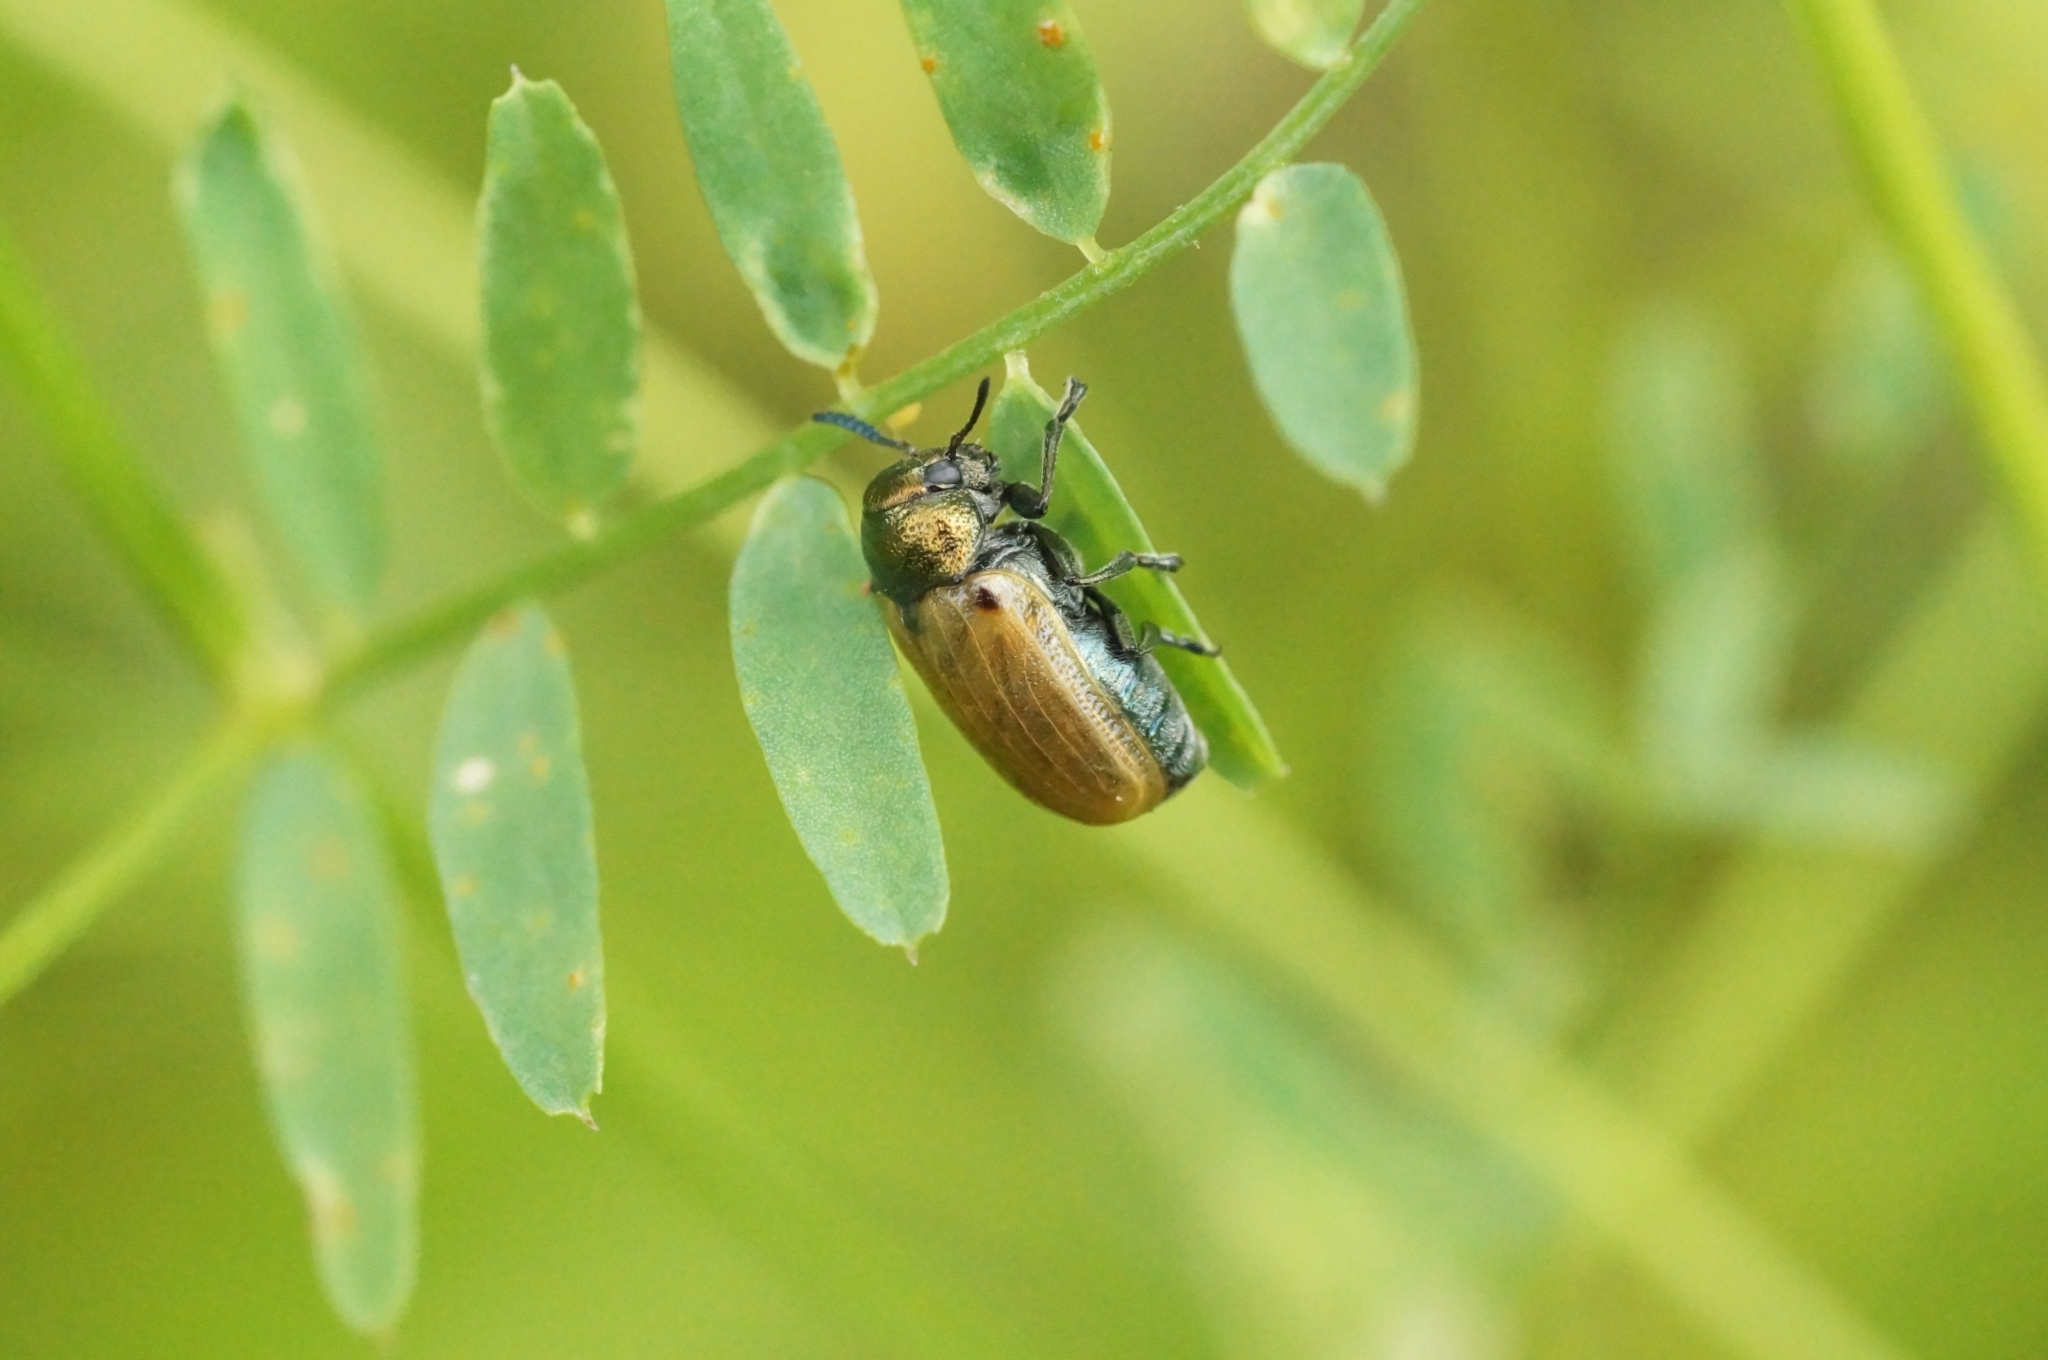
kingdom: Animalia
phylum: Arthropoda
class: Insecta
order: Coleoptera
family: Chrysomelidae
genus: Labidostomis
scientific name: Labidostomis longimana
